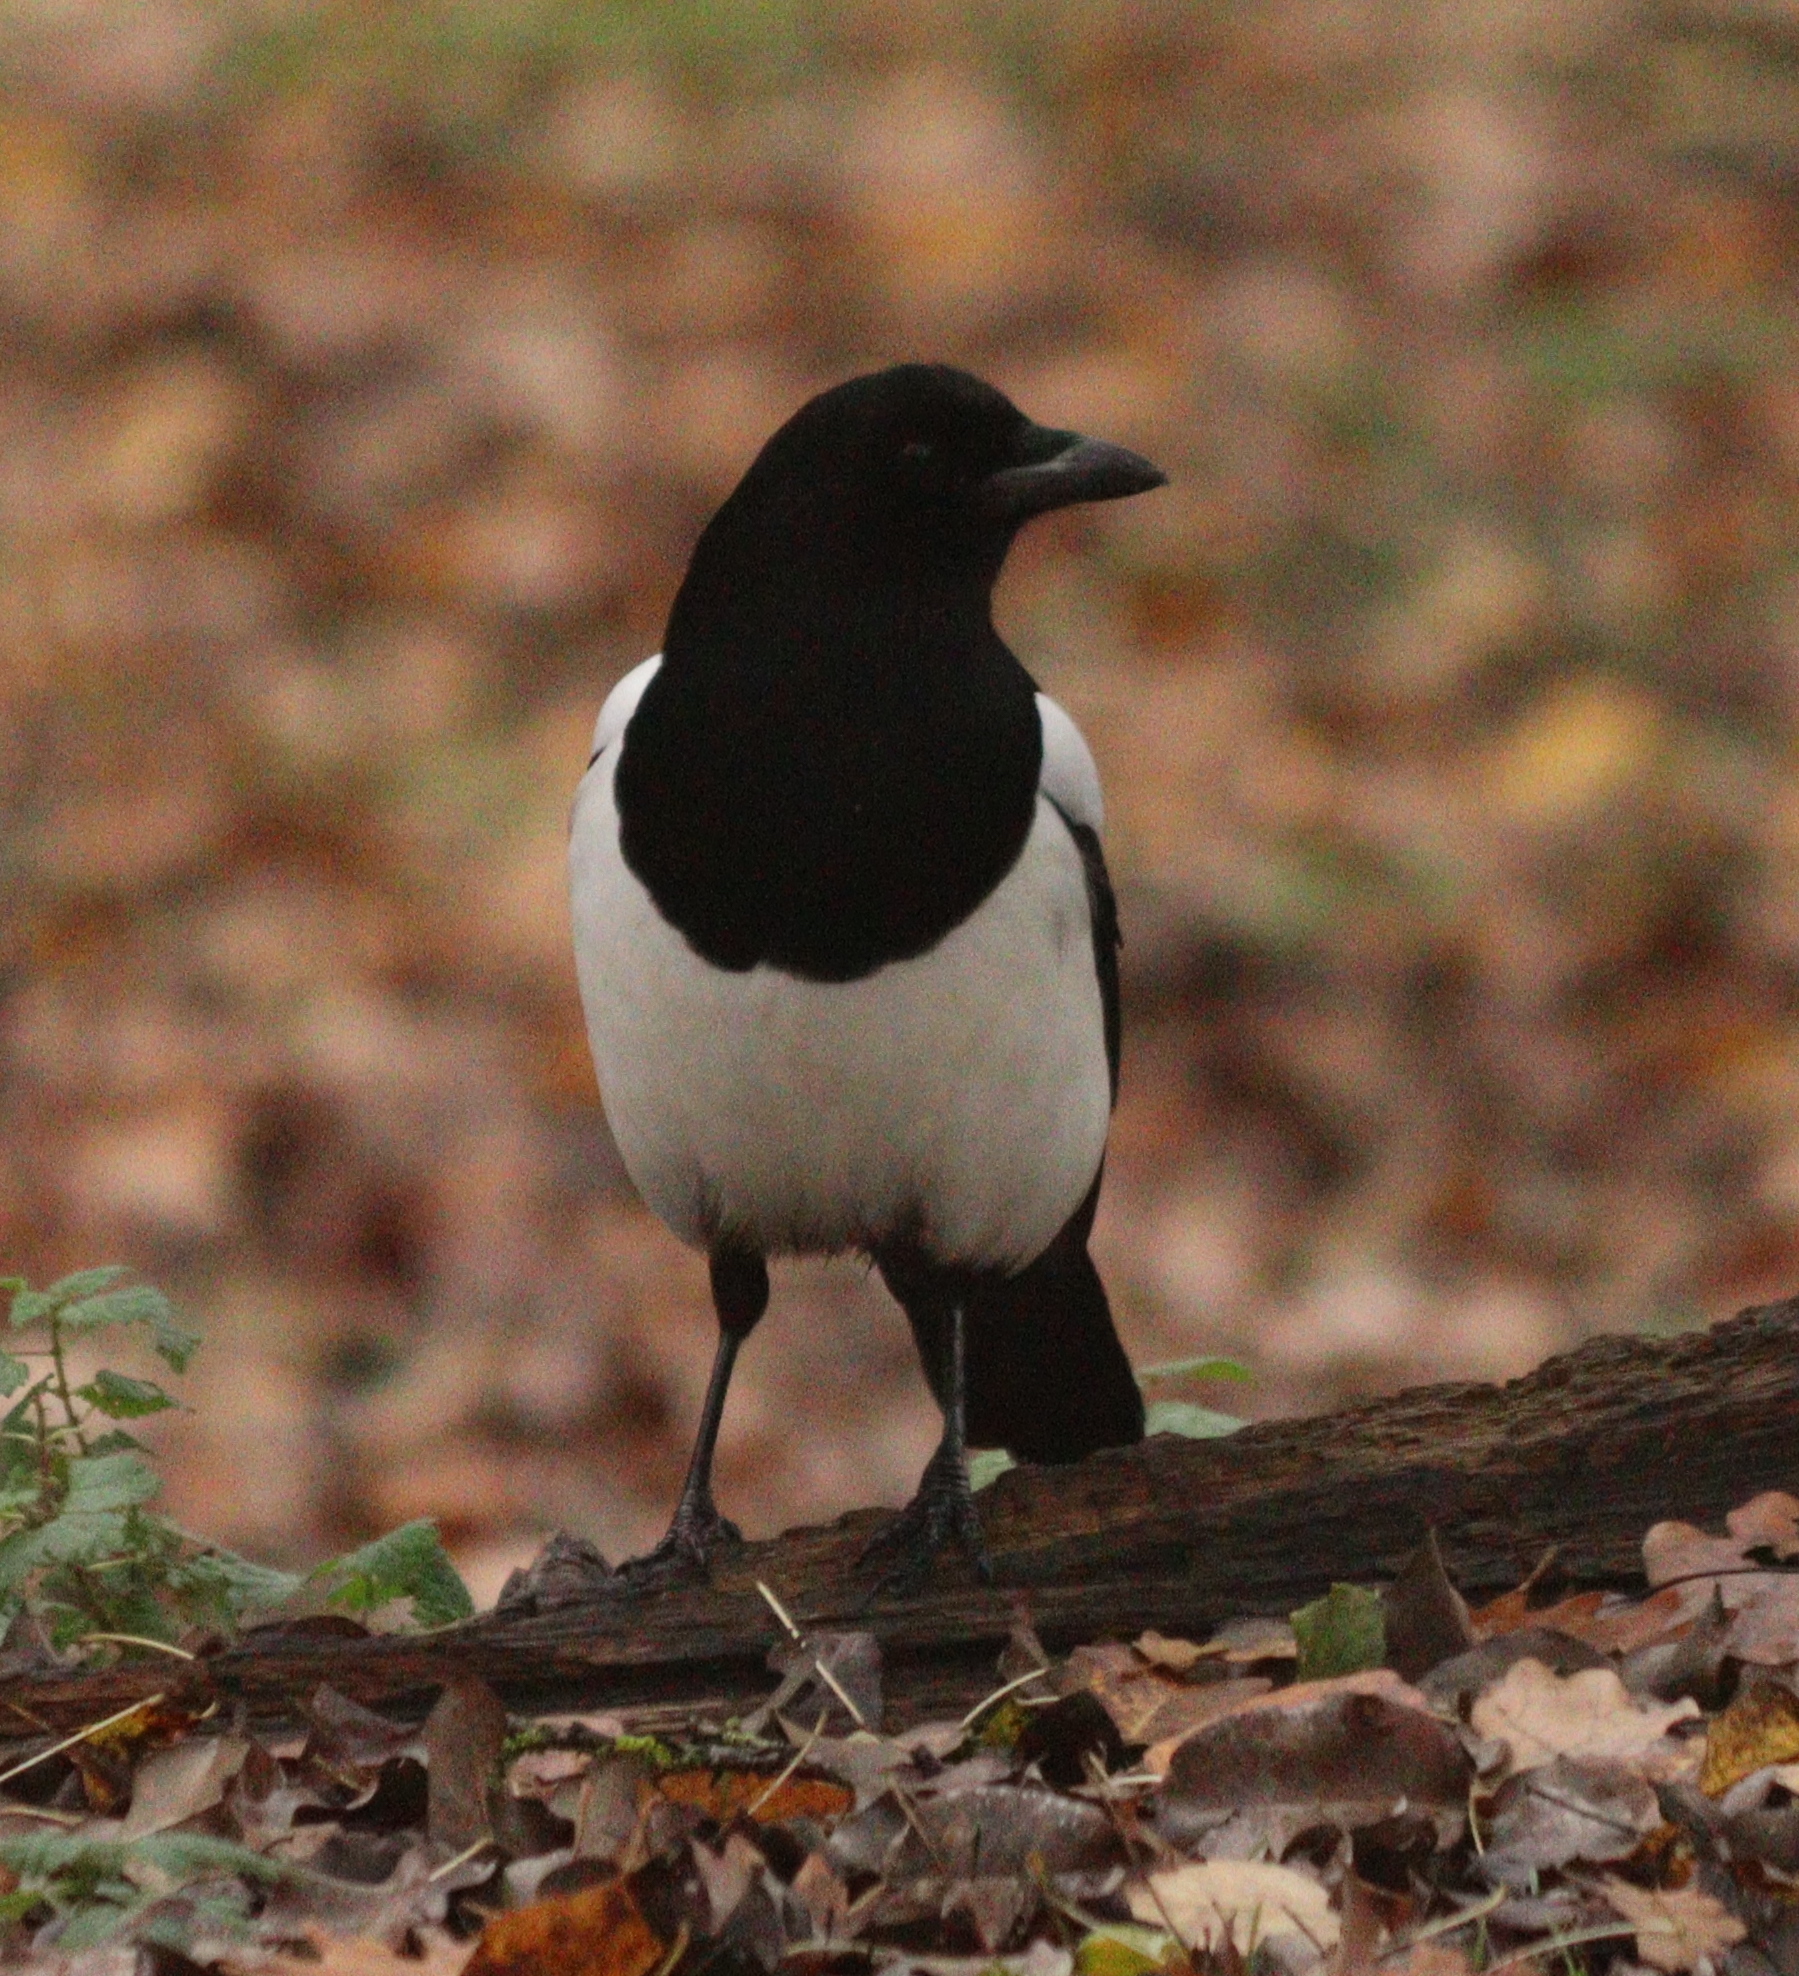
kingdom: Animalia
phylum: Chordata
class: Aves
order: Passeriformes
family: Corvidae
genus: Pica
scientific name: Pica pica
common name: Eurasian magpie
